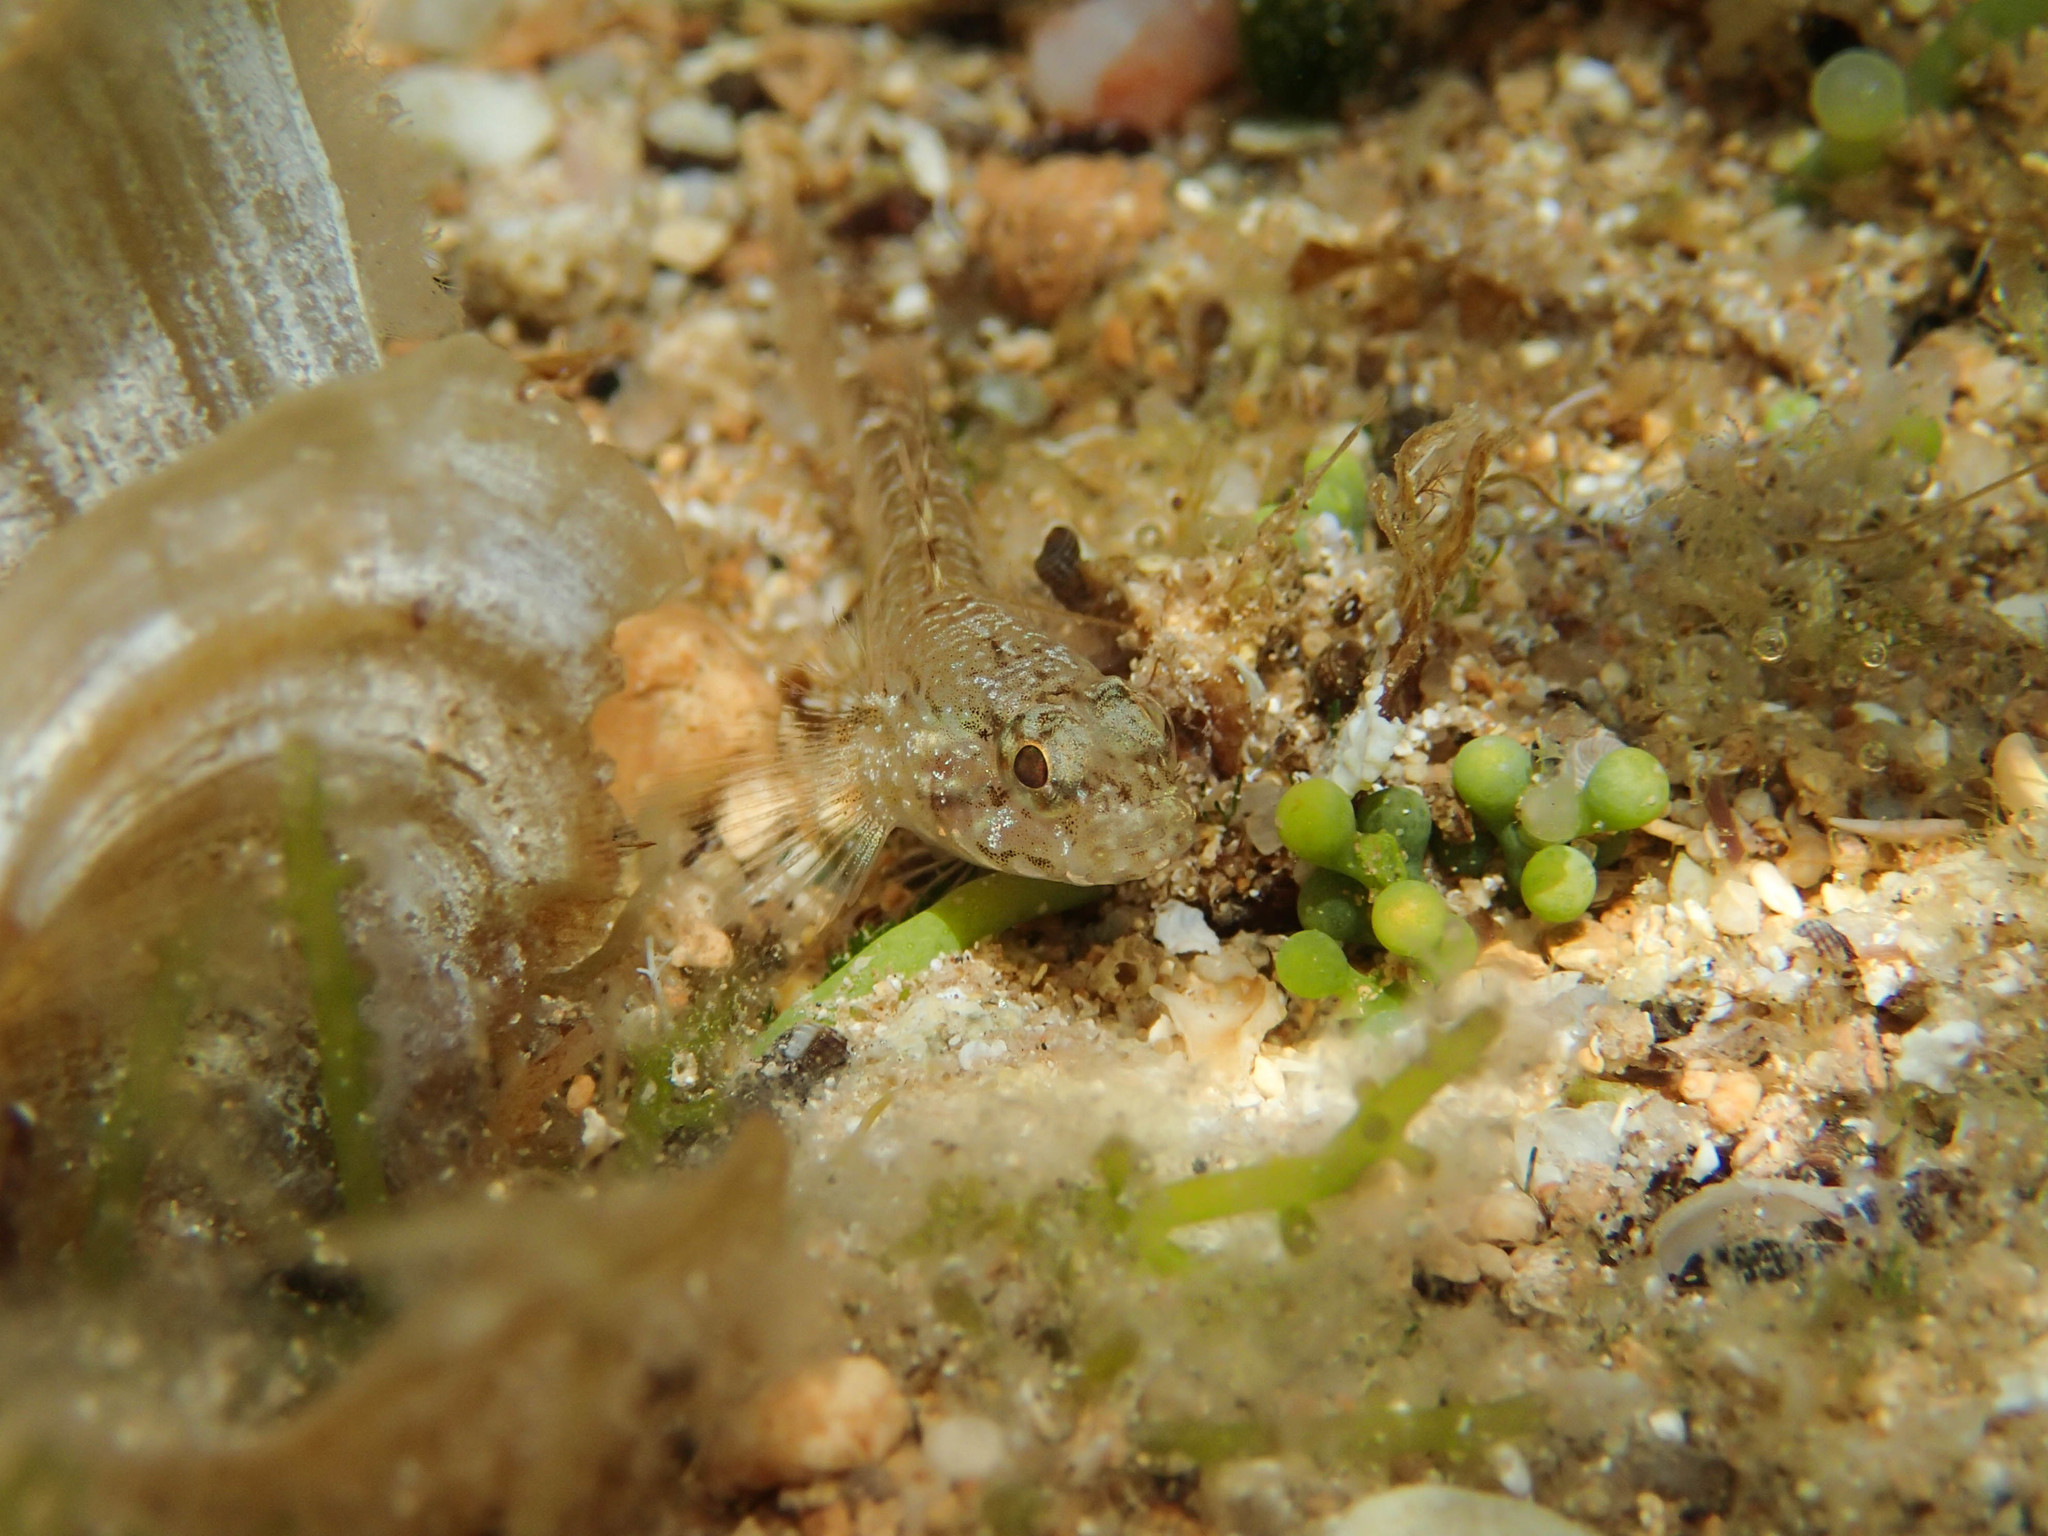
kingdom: Animalia
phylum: Chordata
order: Perciformes
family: Gobiidae
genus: Gobius
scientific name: Gobius paganellus
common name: Rock goby
